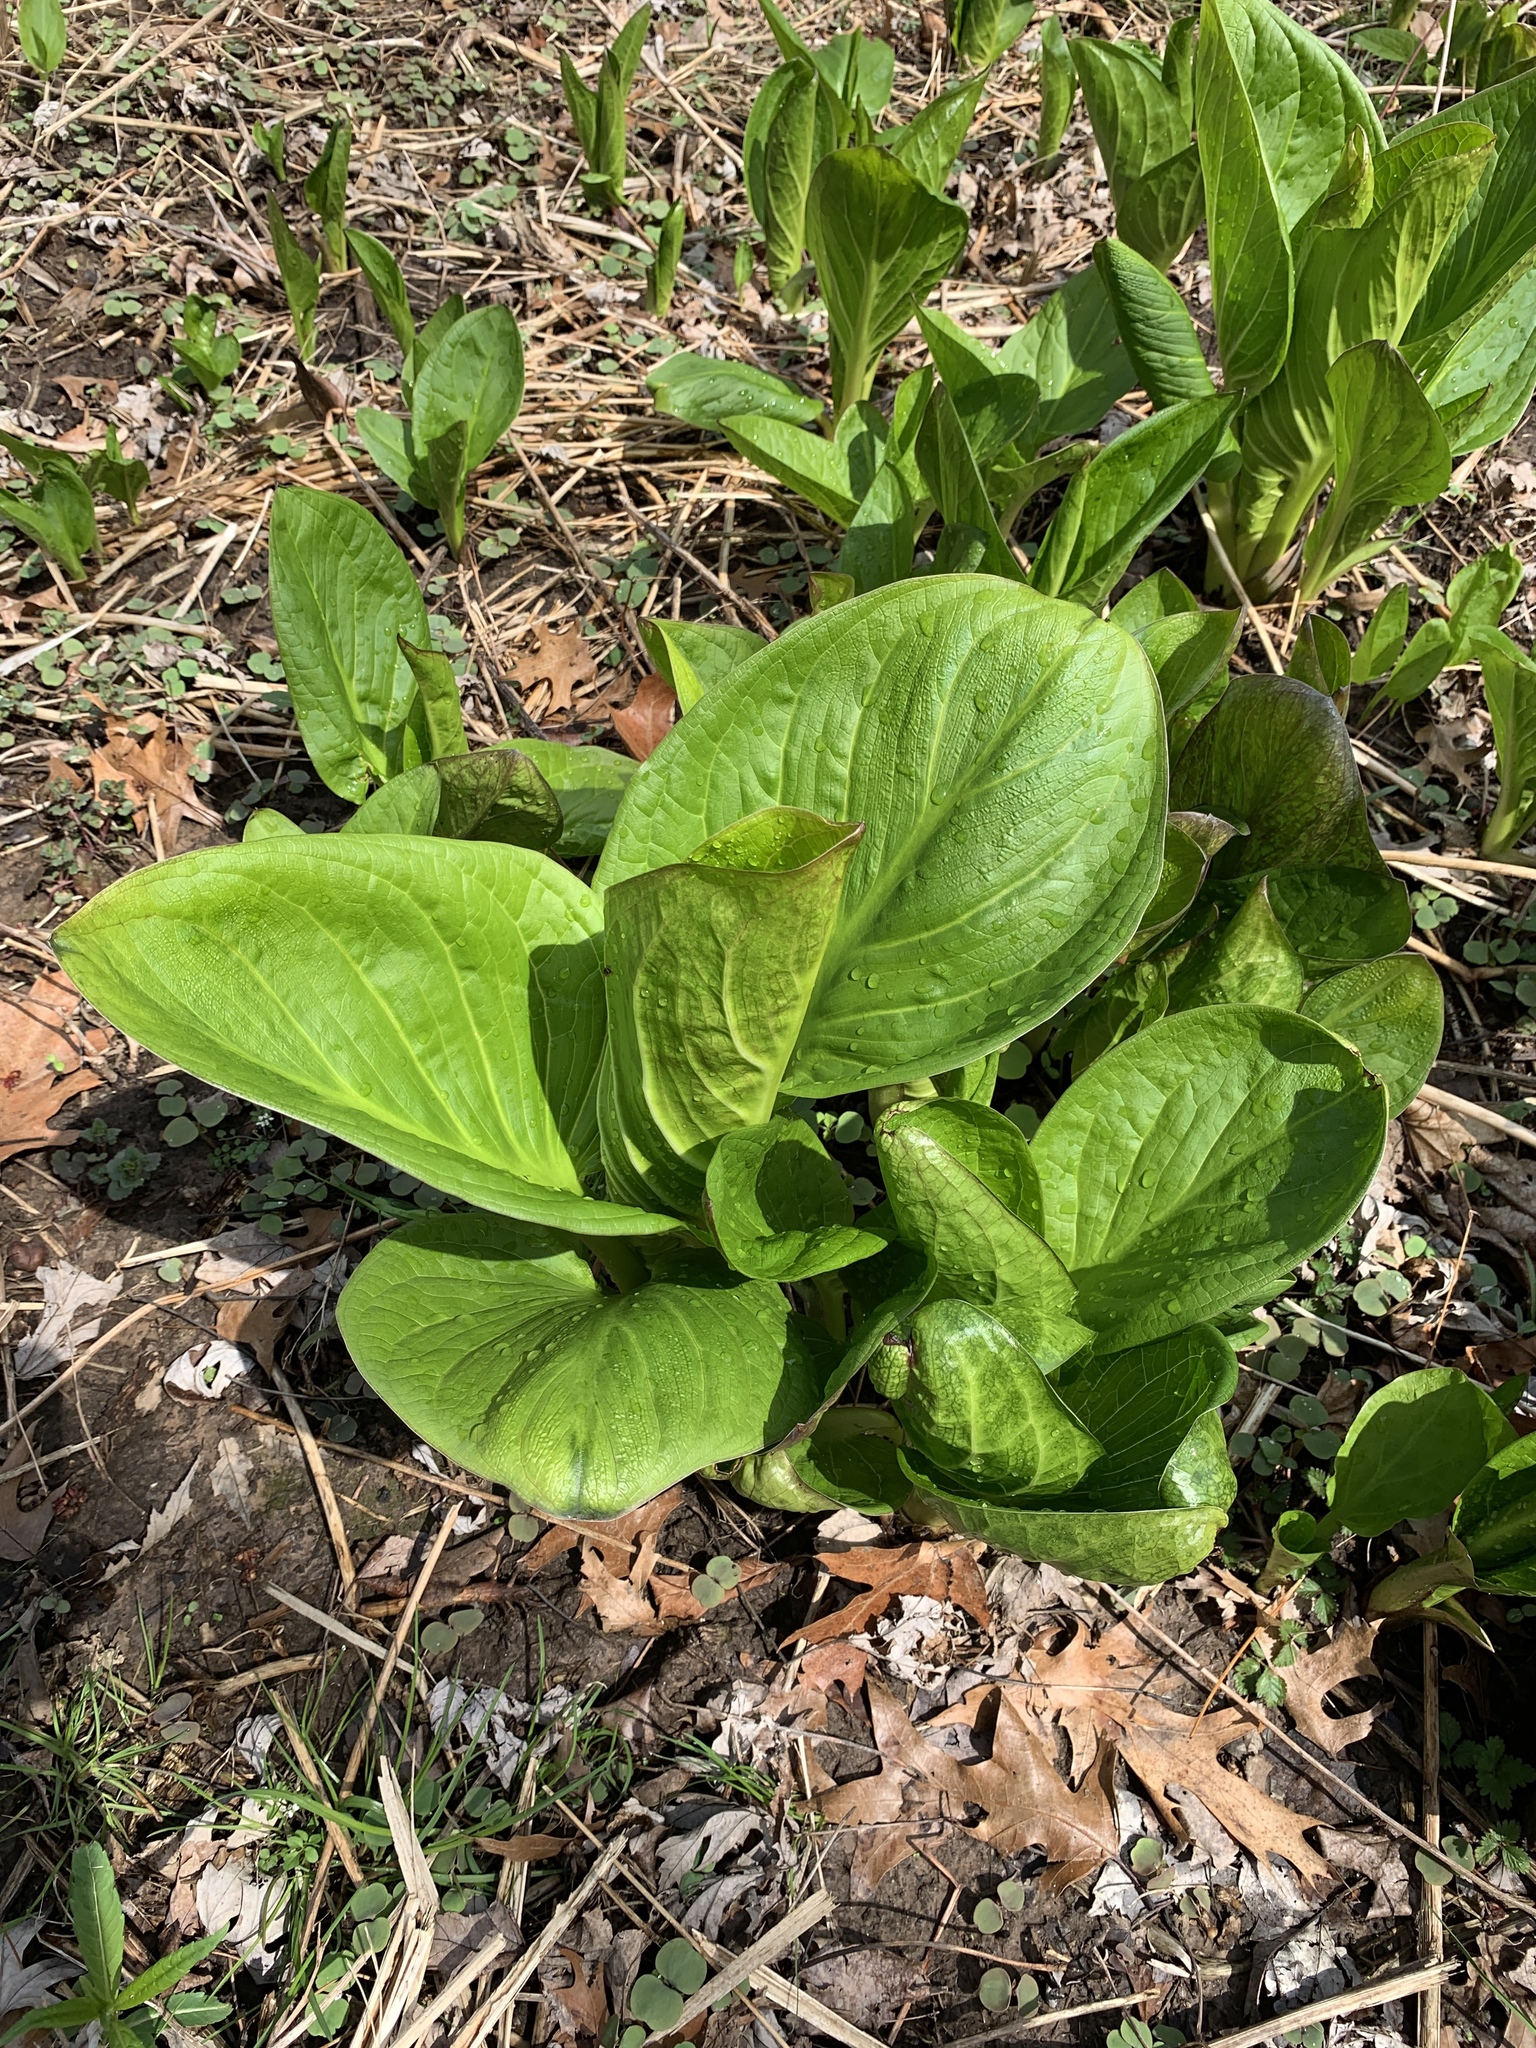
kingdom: Plantae
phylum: Tracheophyta
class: Liliopsida
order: Alismatales
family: Araceae
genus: Symplocarpus
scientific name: Symplocarpus foetidus
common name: Eastern skunk cabbage
